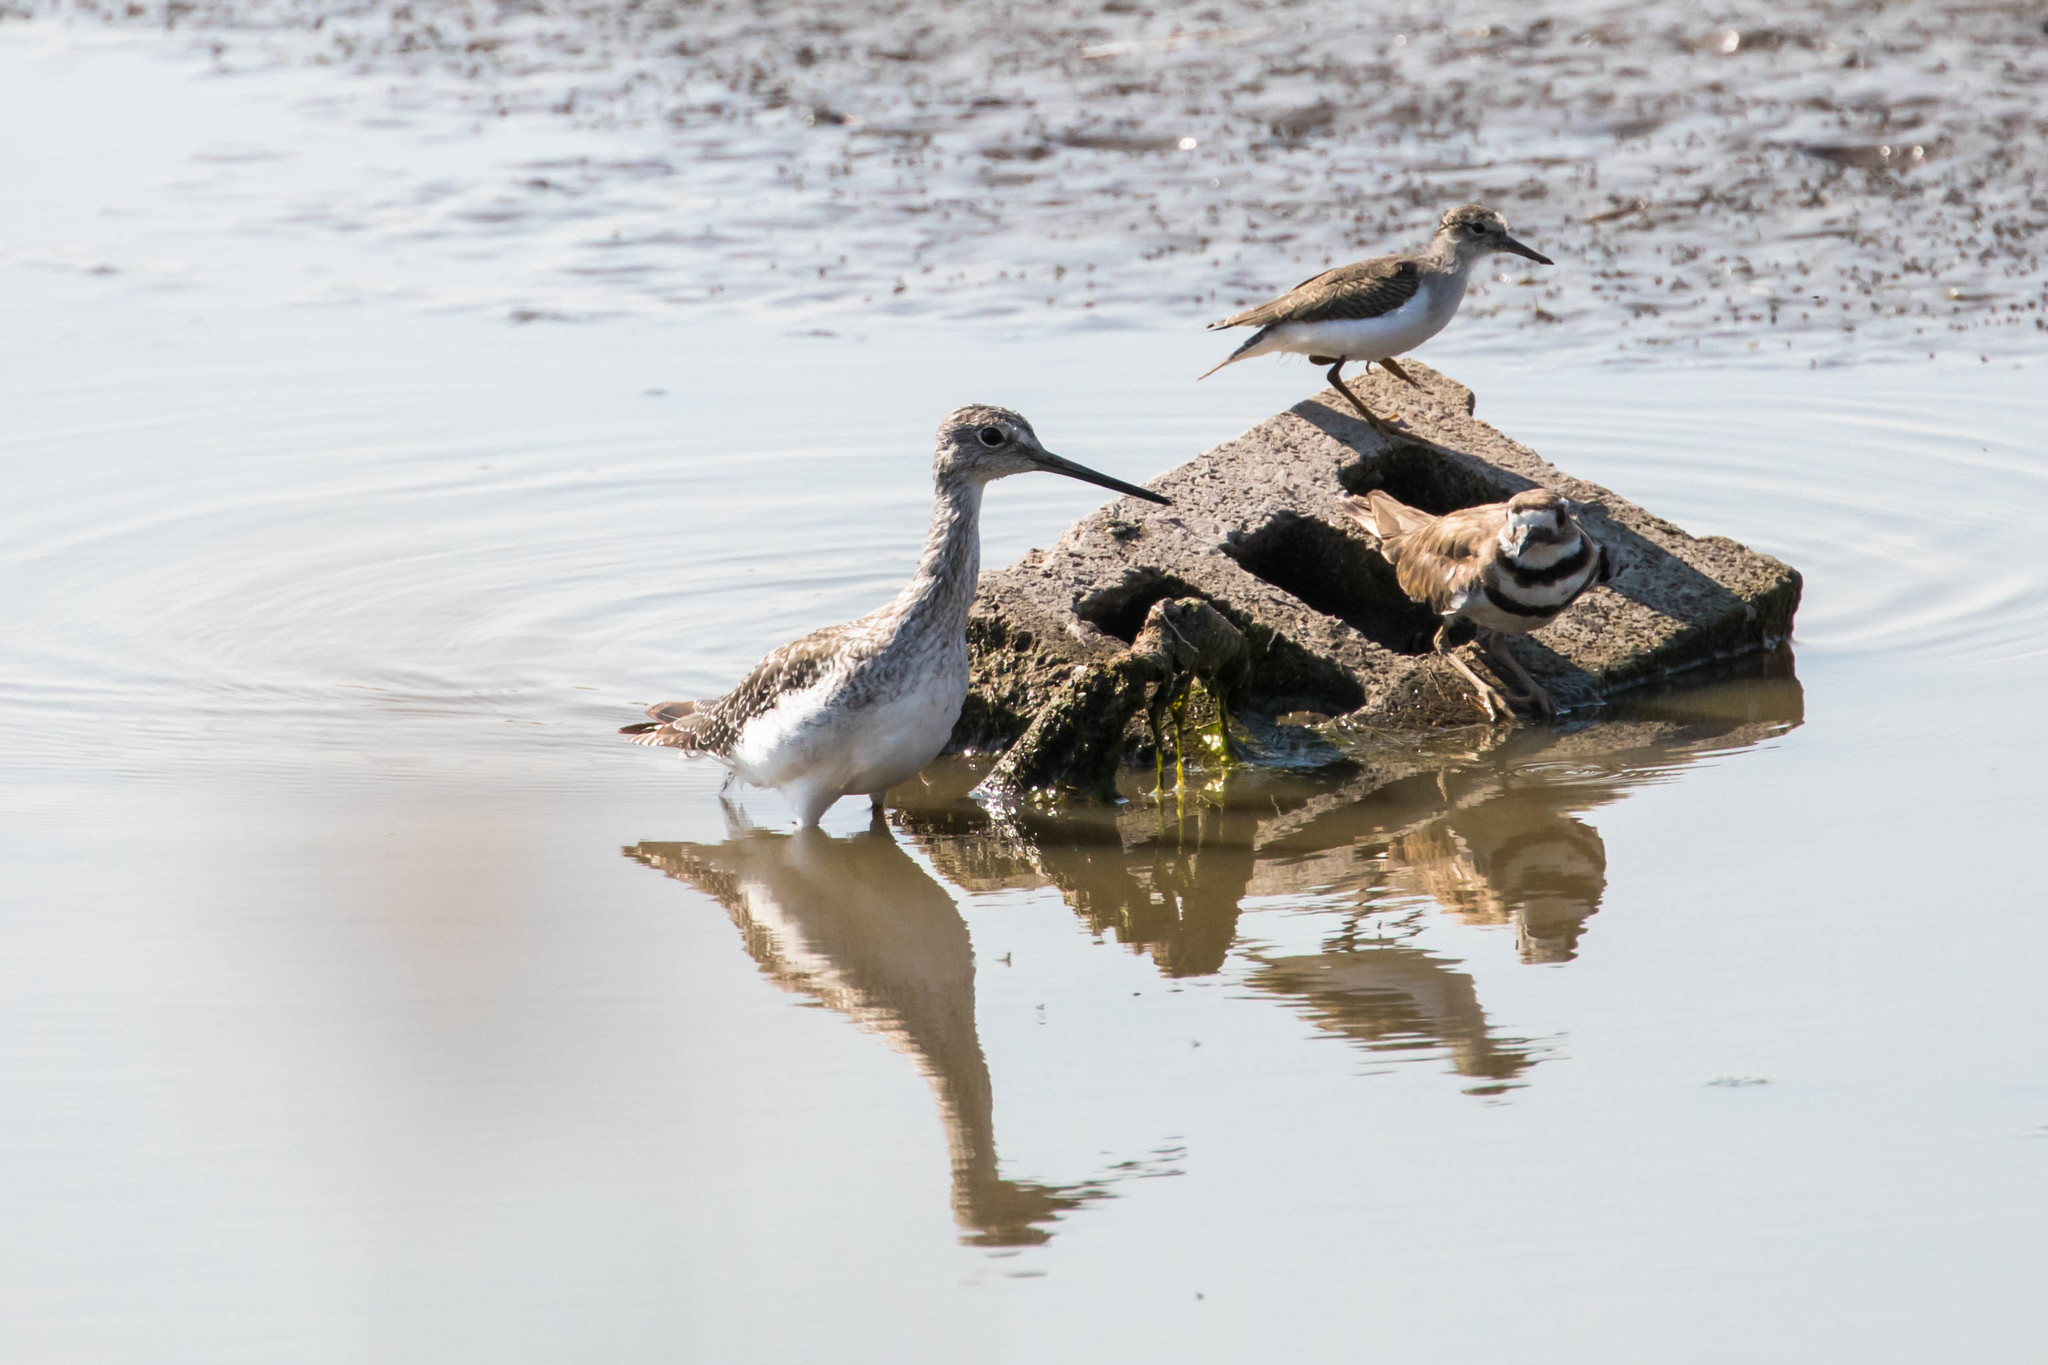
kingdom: Animalia
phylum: Chordata
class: Aves
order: Charadriiformes
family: Scolopacidae
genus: Tringa
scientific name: Tringa melanoleuca
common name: Greater yellowlegs
